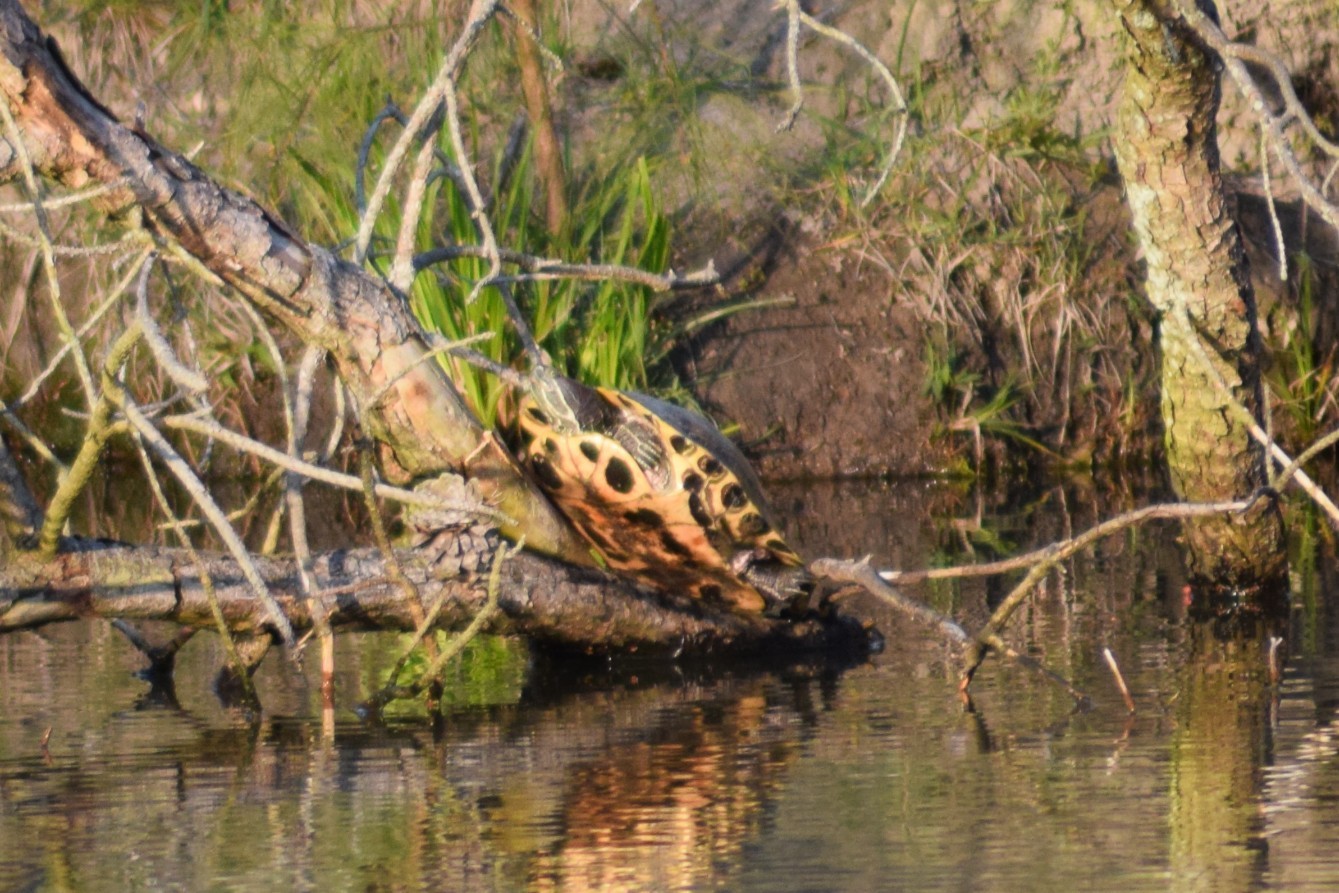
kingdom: Animalia
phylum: Chordata
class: Testudines
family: Emydidae
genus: Trachemys
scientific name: Trachemys scripta
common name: Slider
